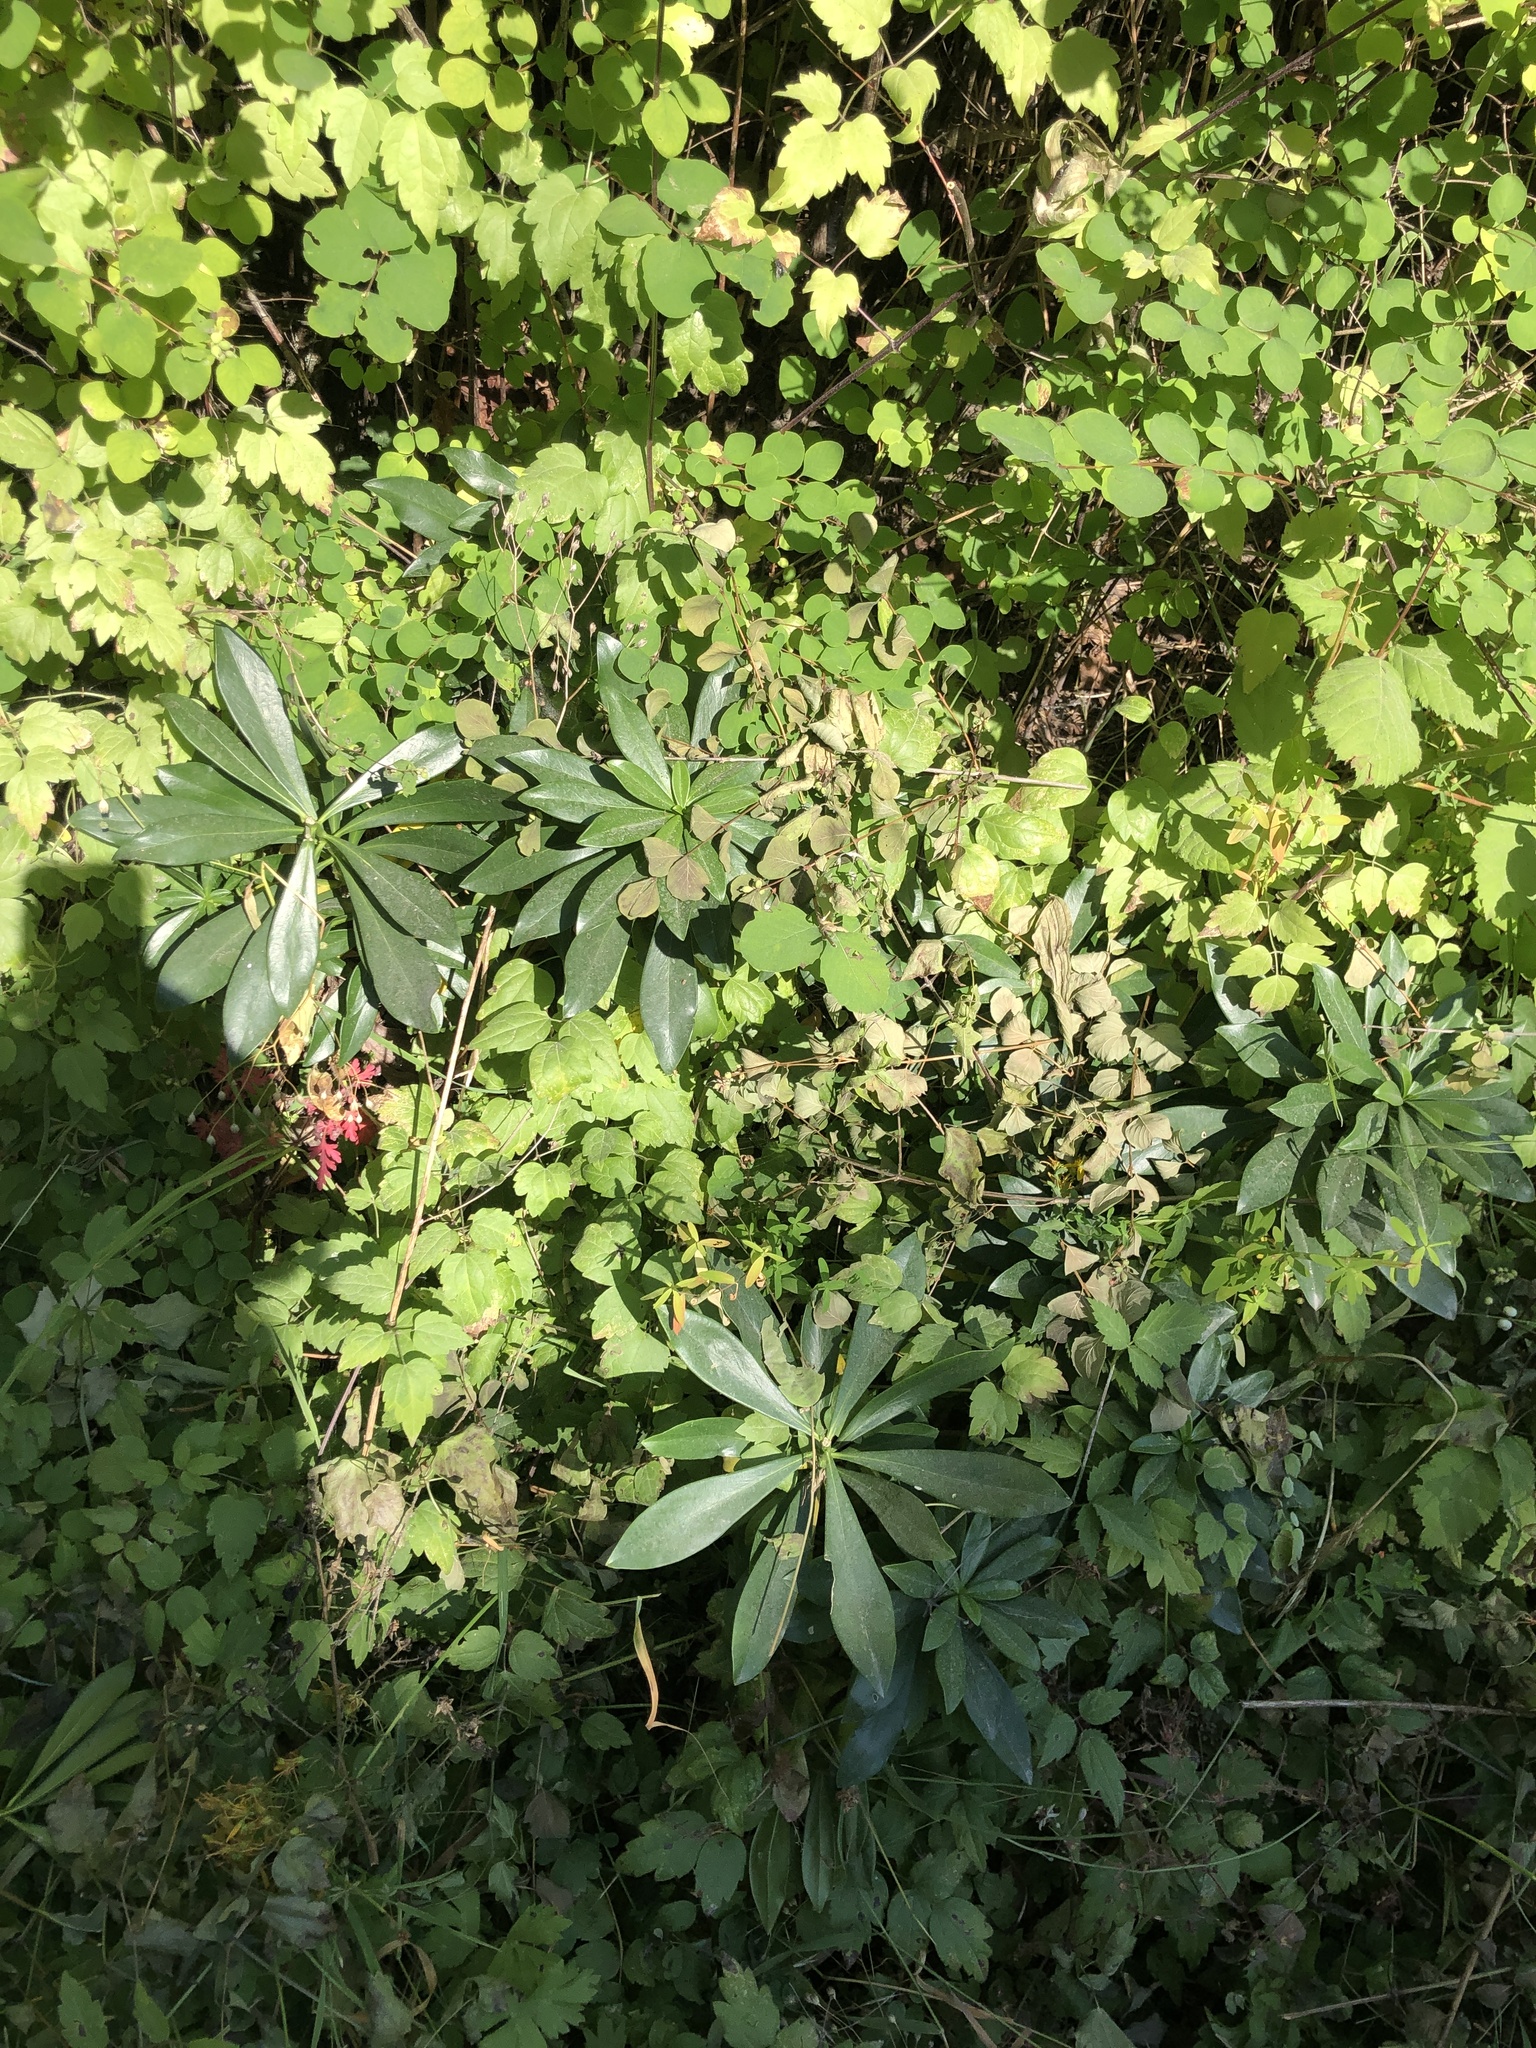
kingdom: Plantae
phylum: Tracheophyta
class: Magnoliopsida
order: Malvales
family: Thymelaeaceae
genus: Daphne
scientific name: Daphne laureola
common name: Spurge-laurel
